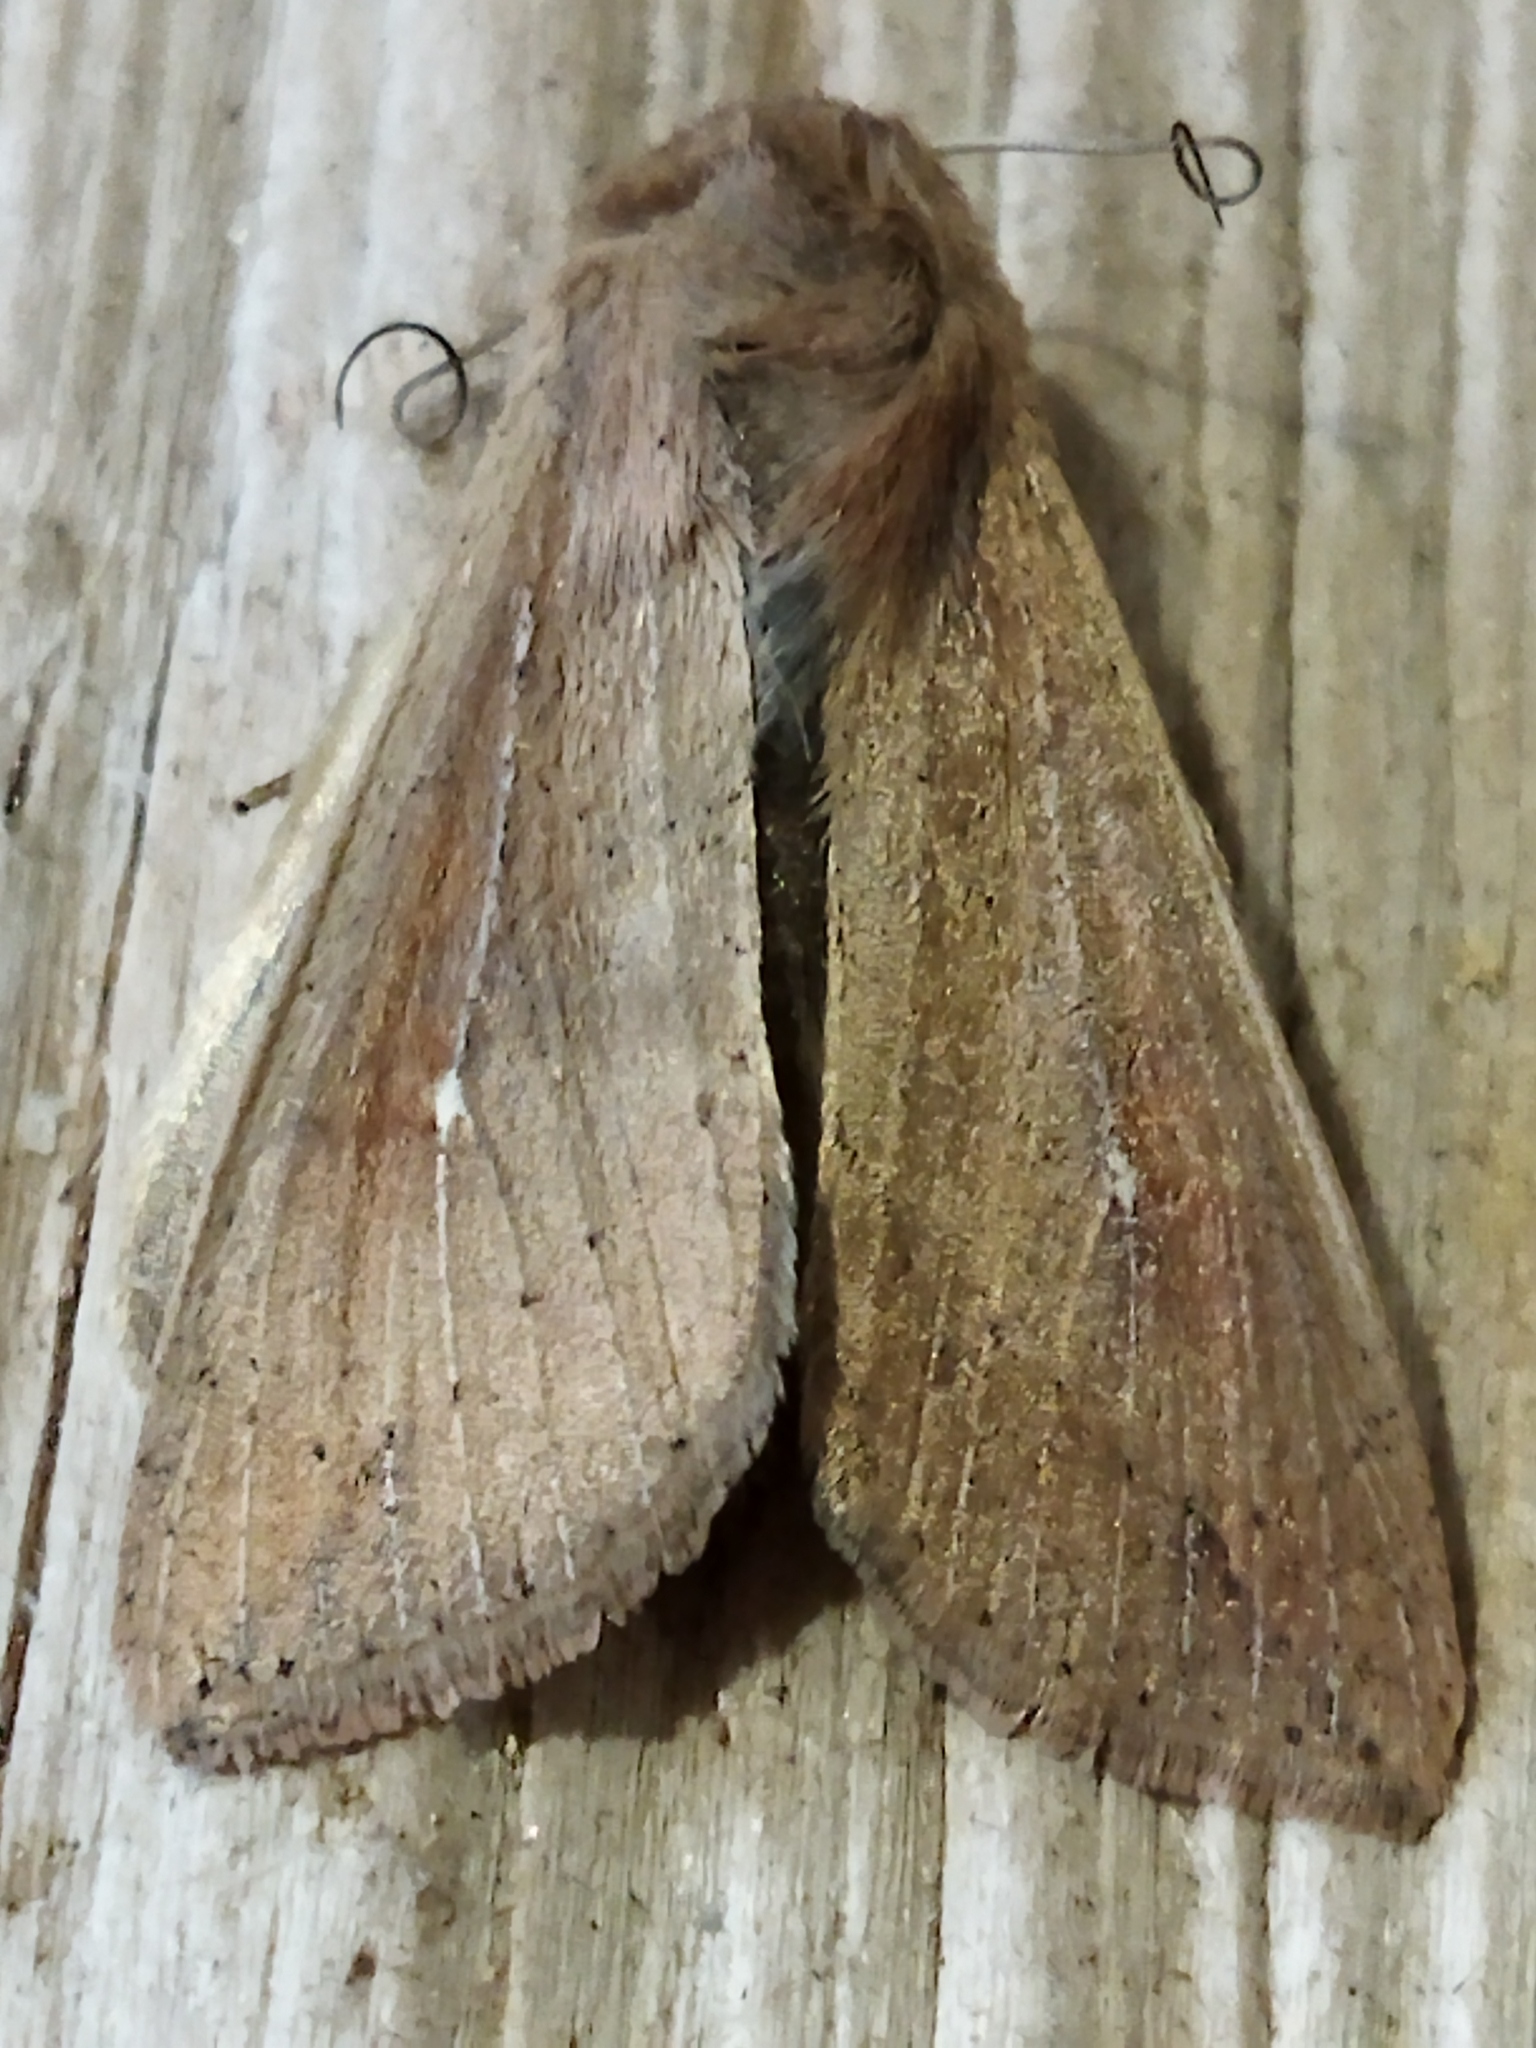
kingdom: Animalia
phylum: Arthropoda
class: Insecta
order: Lepidoptera
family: Noctuidae
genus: Mythimna
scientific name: Mythimna unipuncta
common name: White-speck
